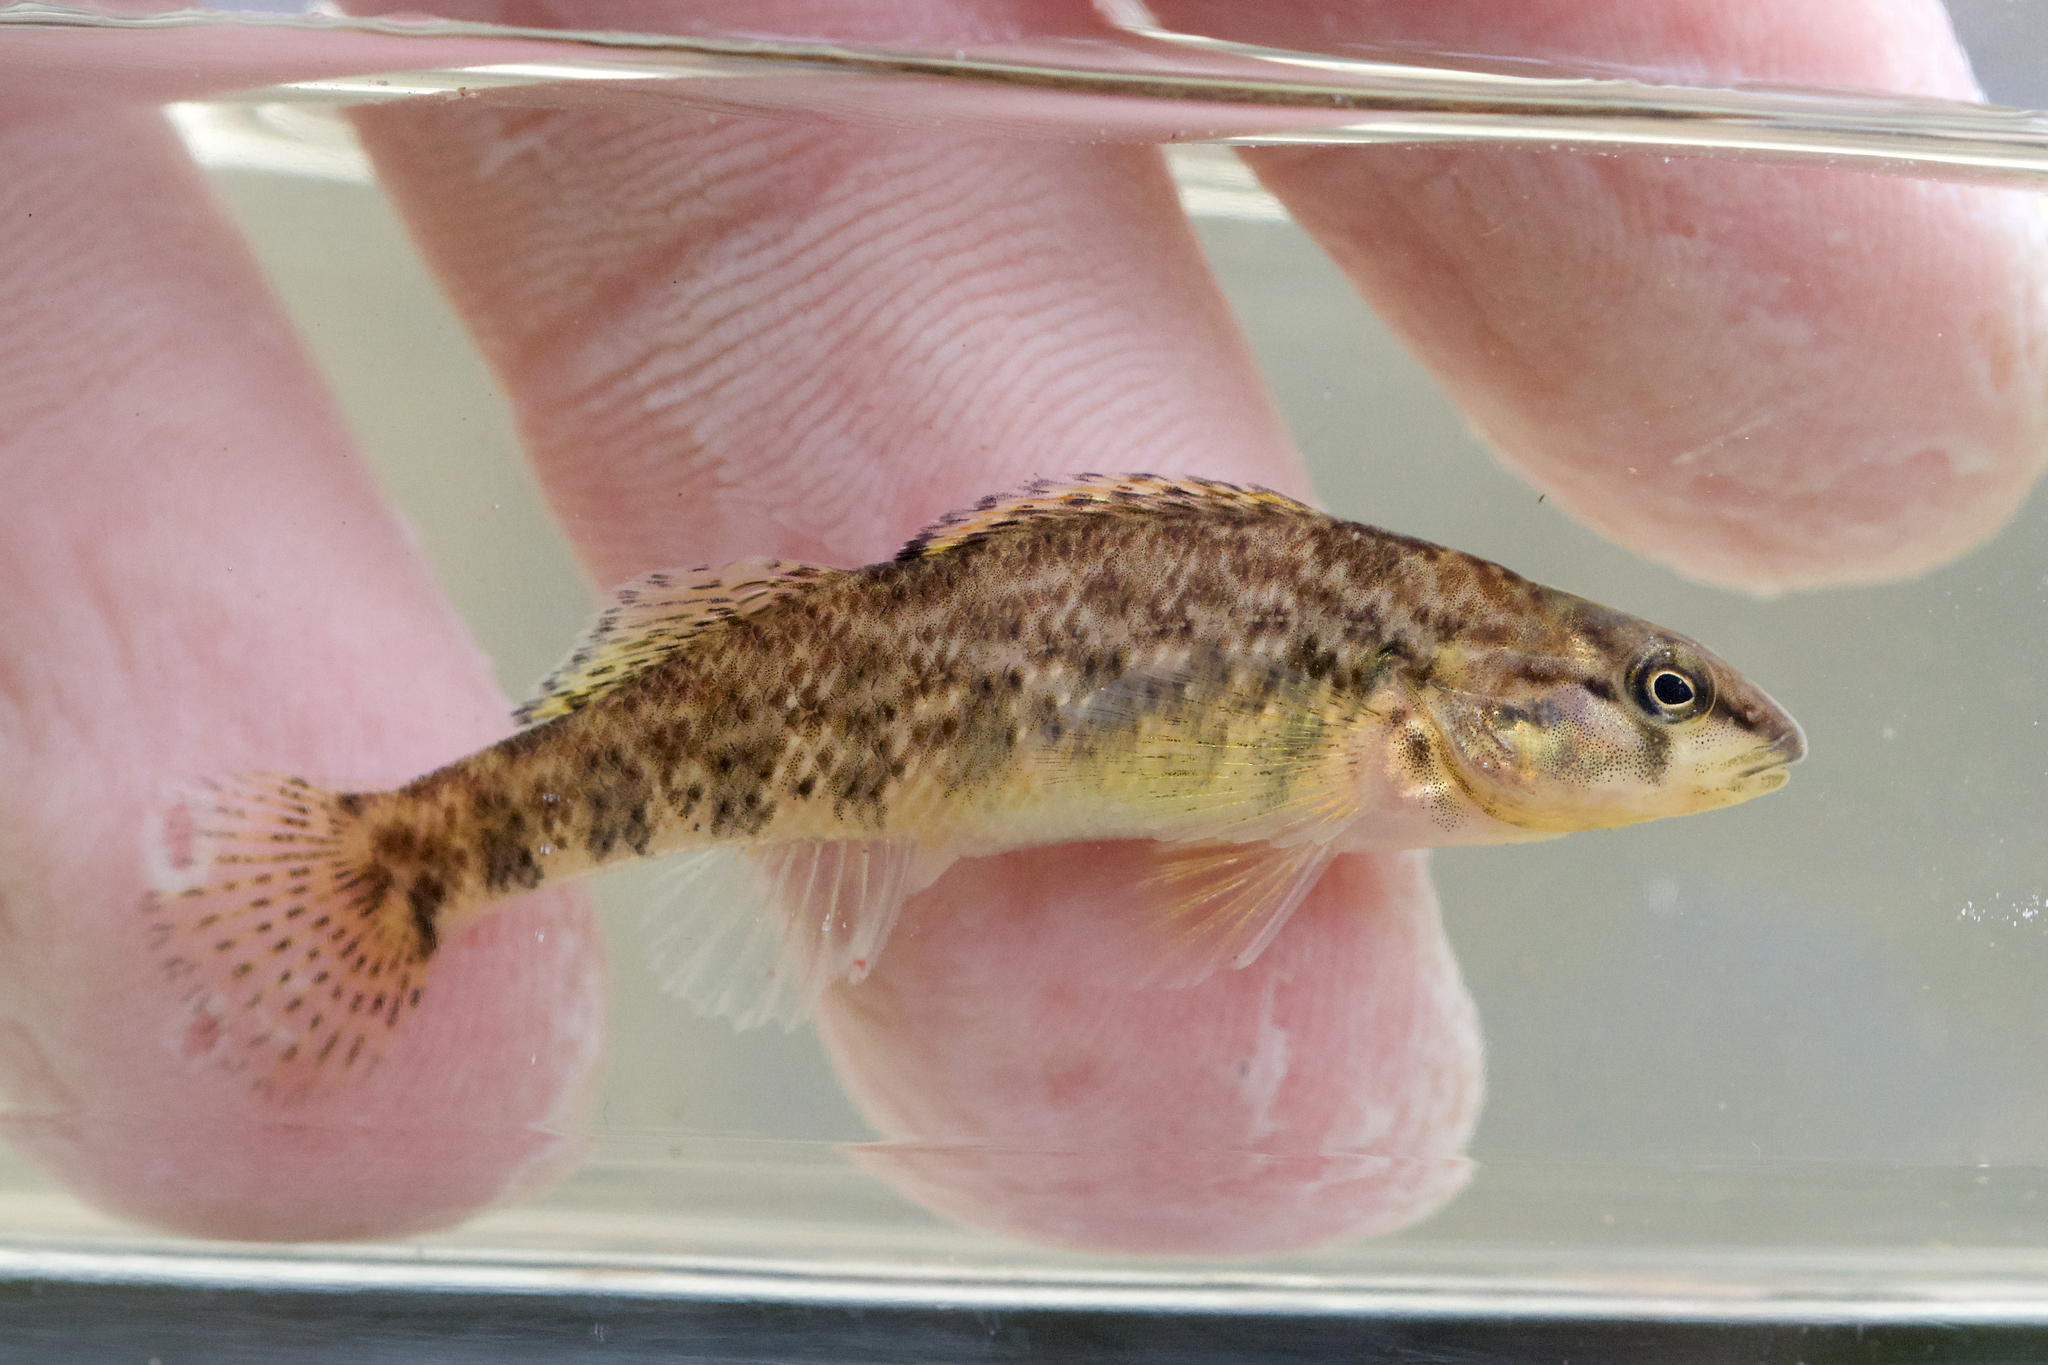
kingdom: Animalia
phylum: Chordata
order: Perciformes
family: Percidae
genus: Etheostoma
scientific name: Etheostoma caeruleum
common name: Rainbow darter
